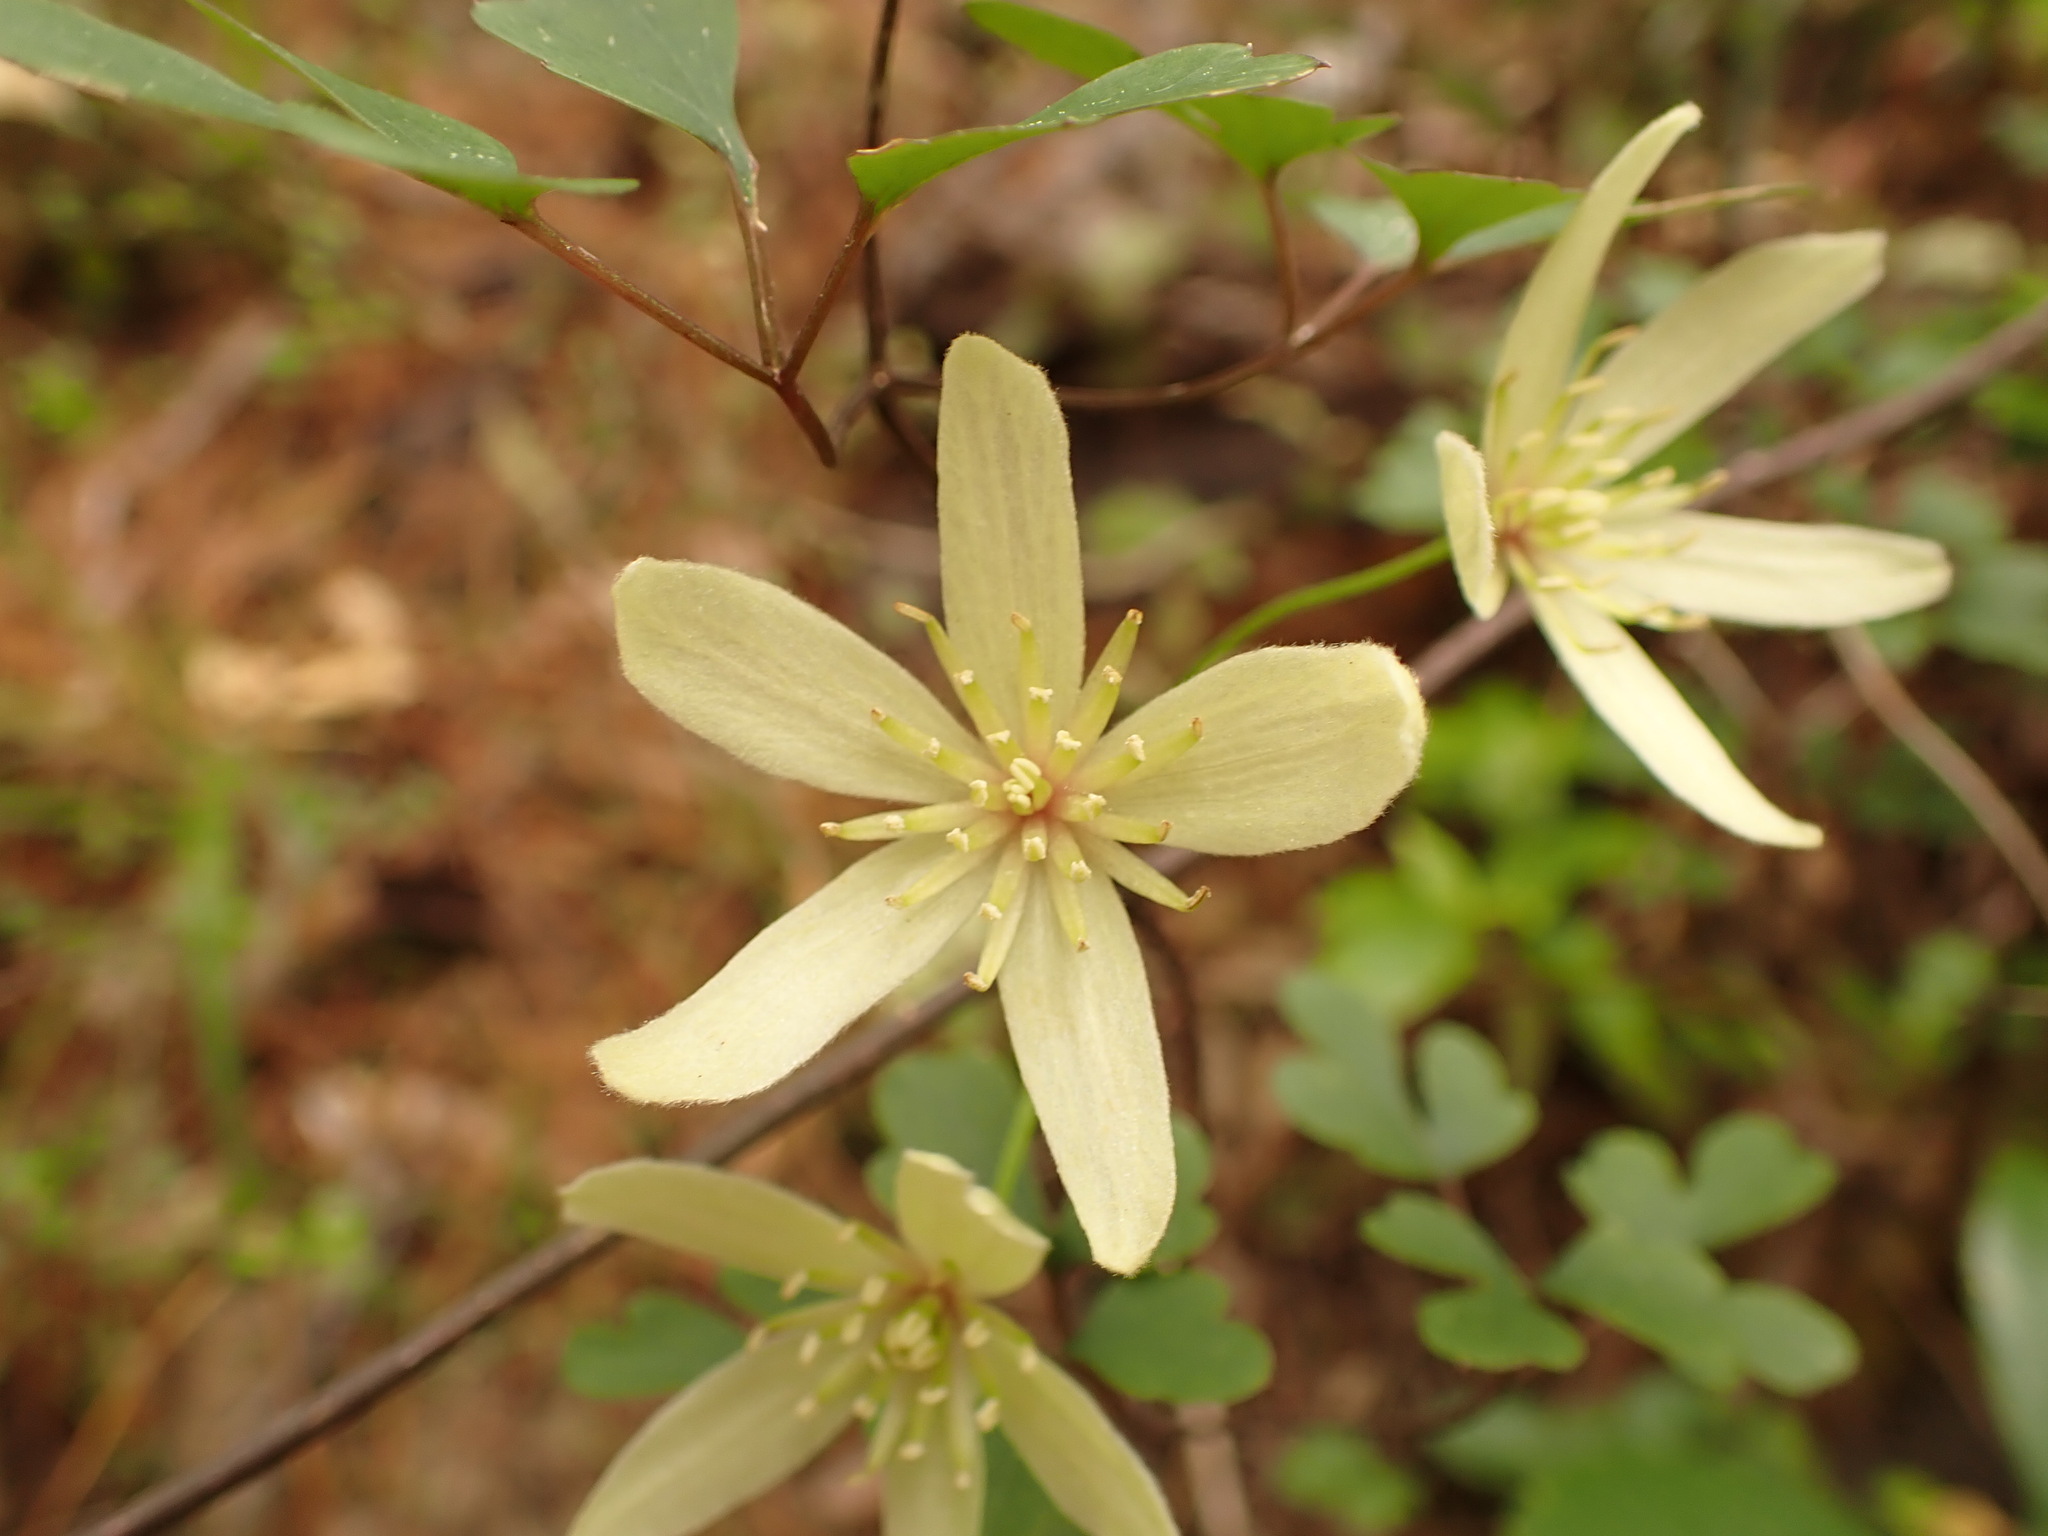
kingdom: Plantae
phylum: Tracheophyta
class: Magnoliopsida
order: Ranunculales
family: Ranunculaceae
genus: Clematis
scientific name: Clematis forsteri
